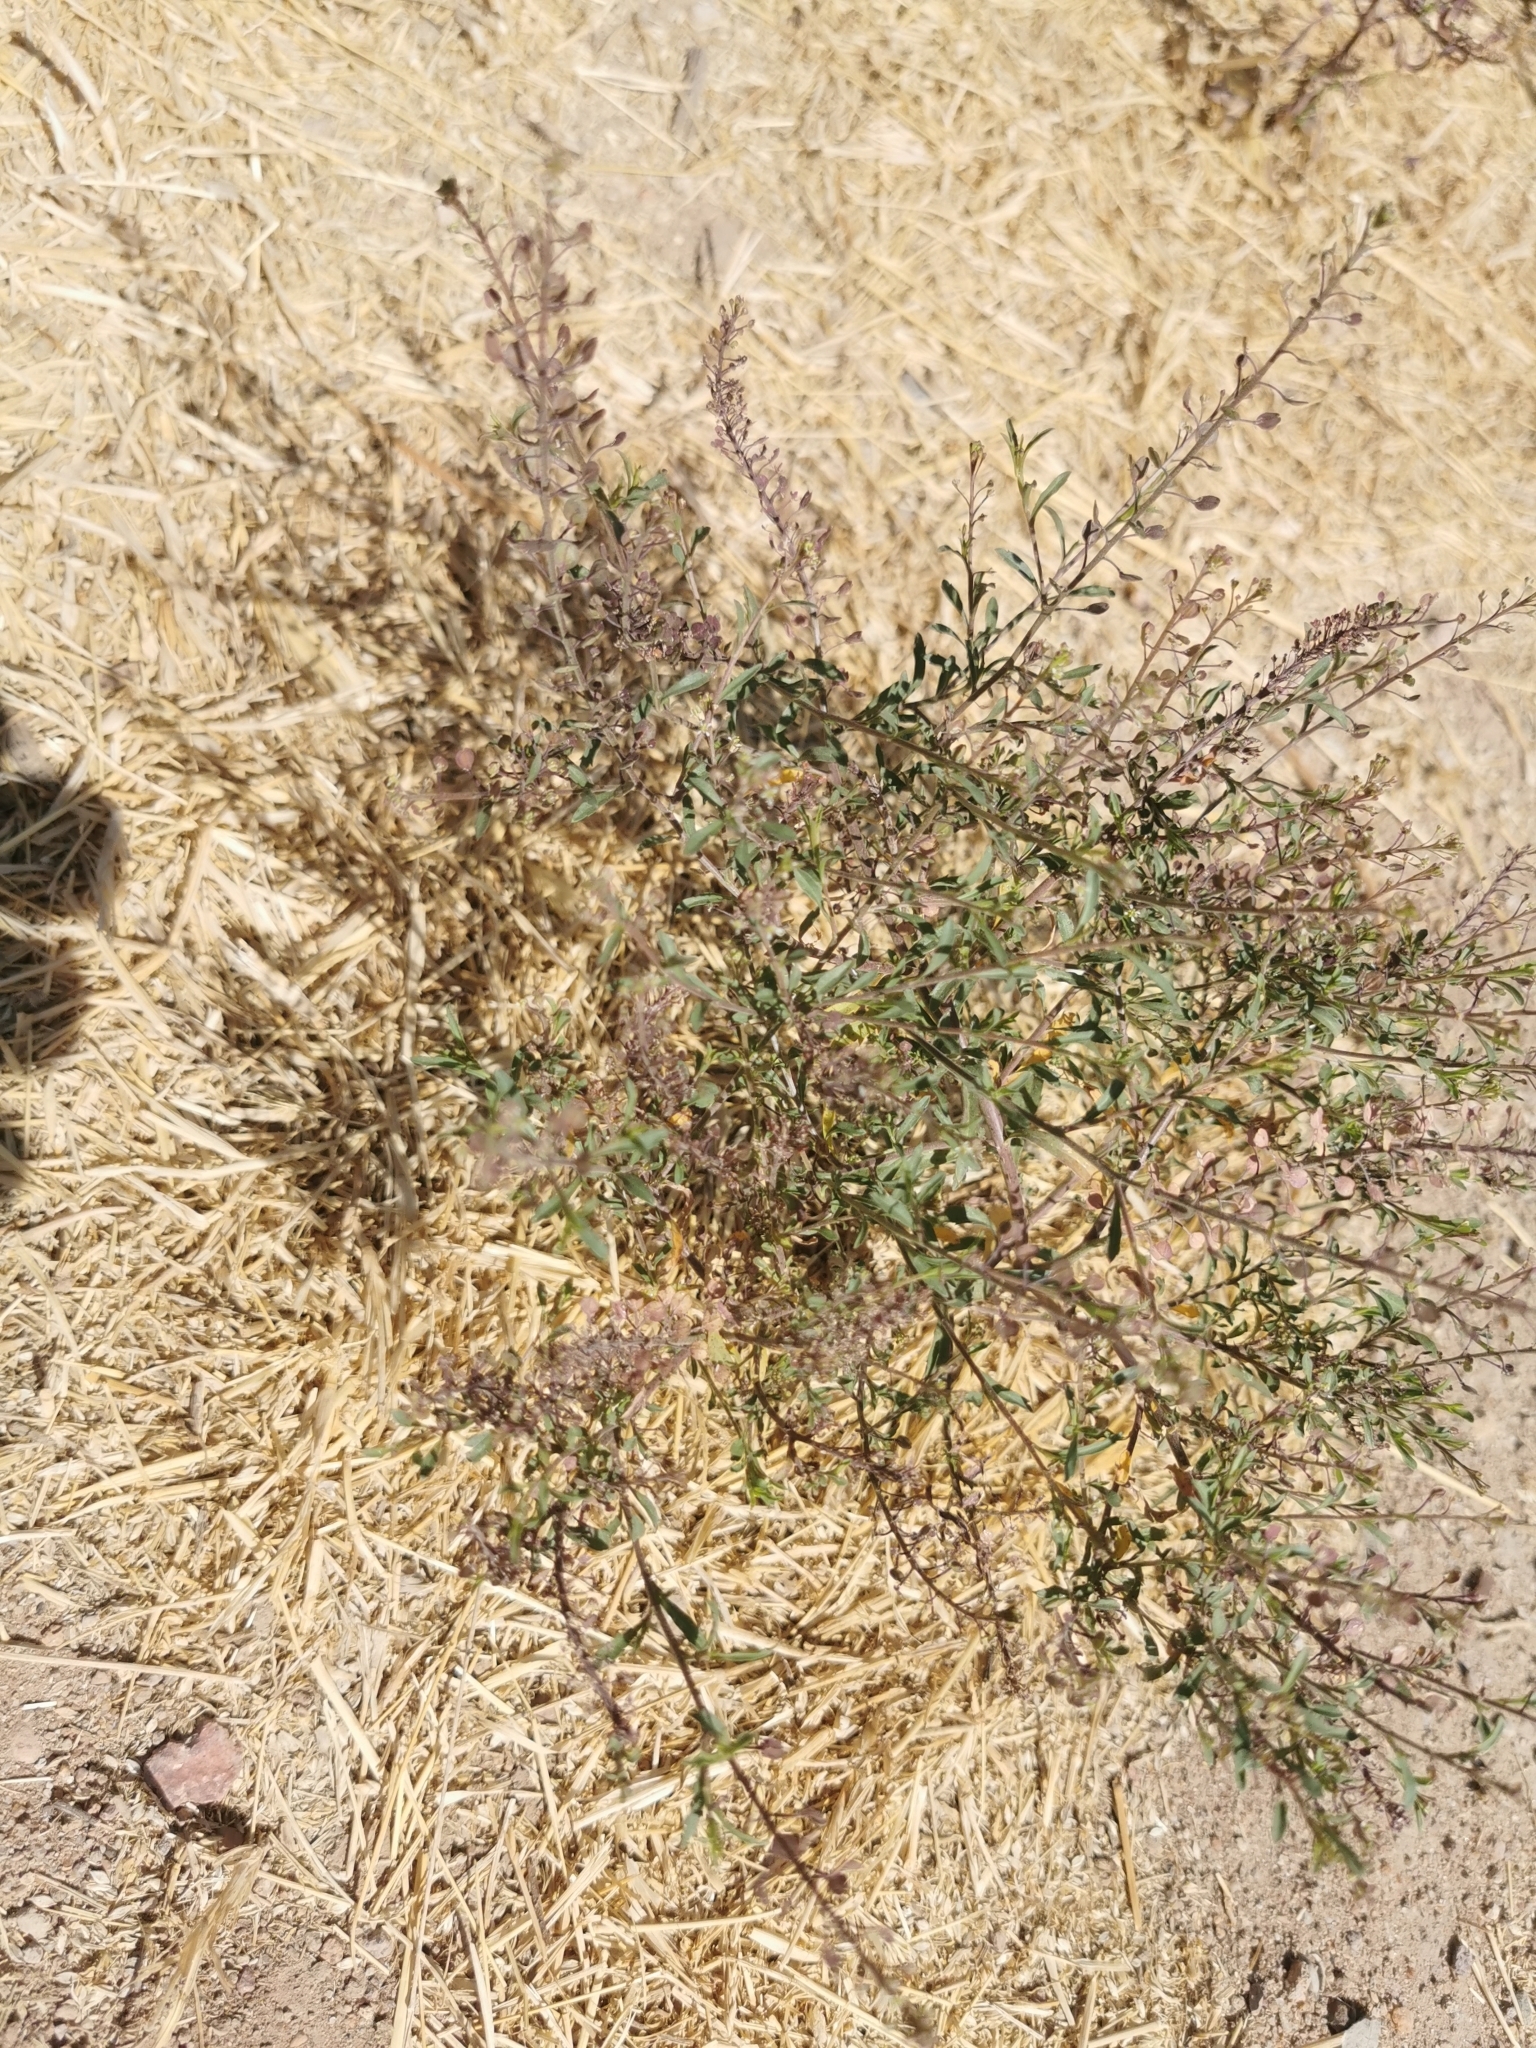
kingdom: Plantae
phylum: Tracheophyta
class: Magnoliopsida
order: Brassicales
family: Brassicaceae
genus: Lepidium
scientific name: Lepidium virginicum
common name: Least pepperwort
